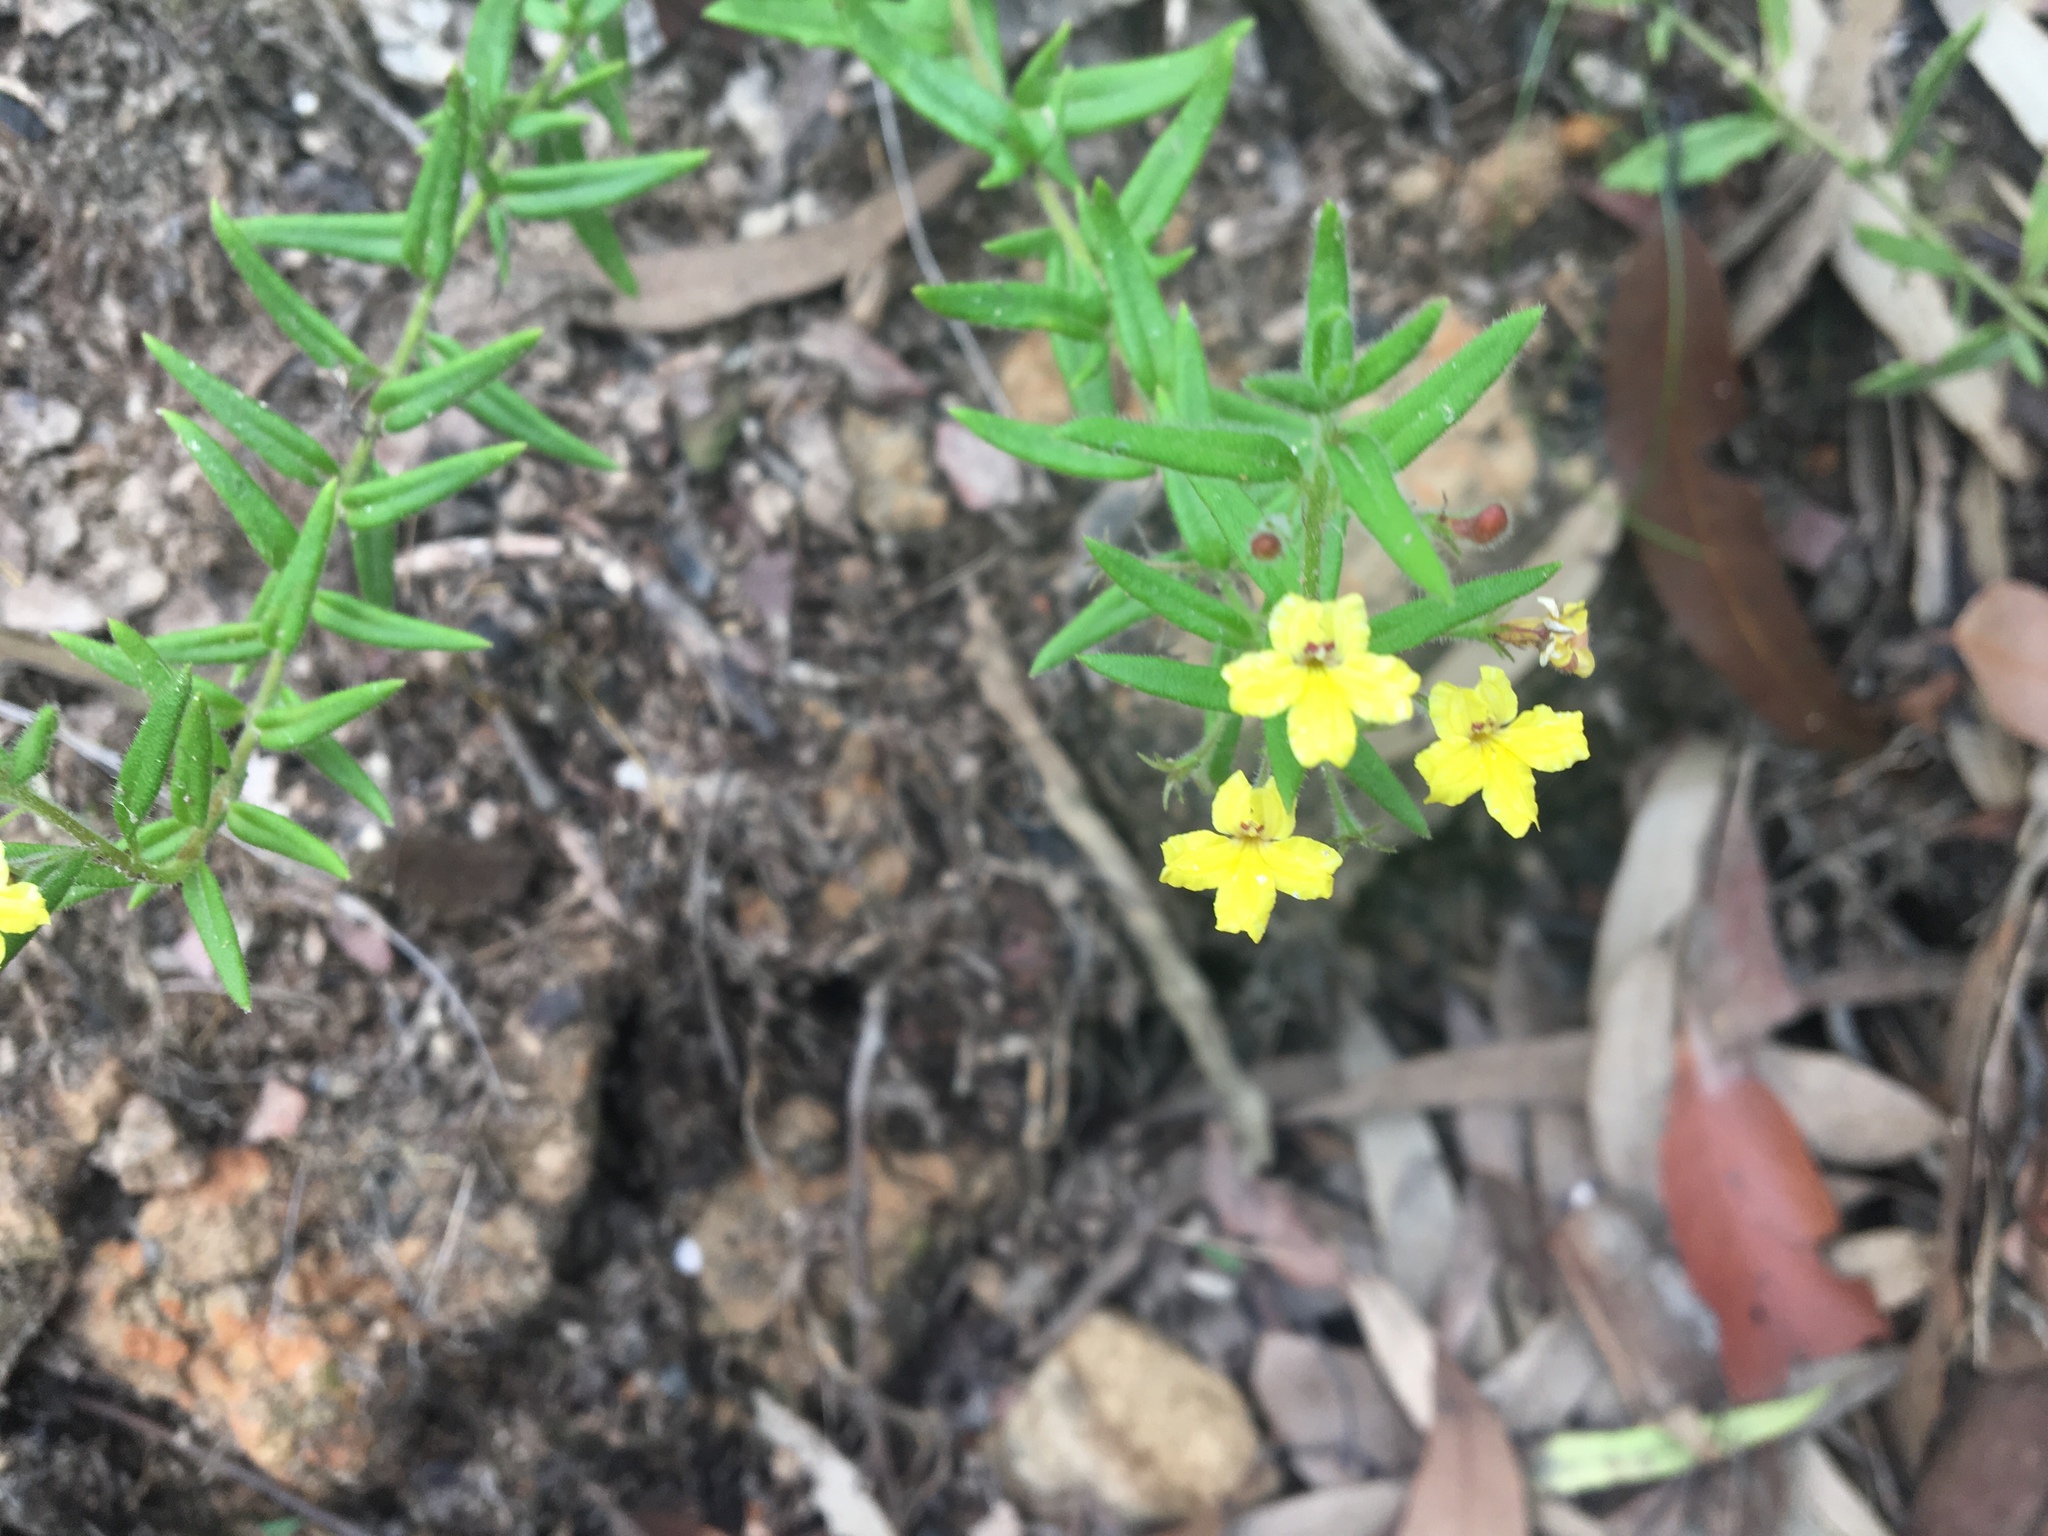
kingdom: Plantae
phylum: Tracheophyta
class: Magnoliopsida
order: Asterales
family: Goodeniaceae
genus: Goodenia
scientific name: Goodenia heterophylla
